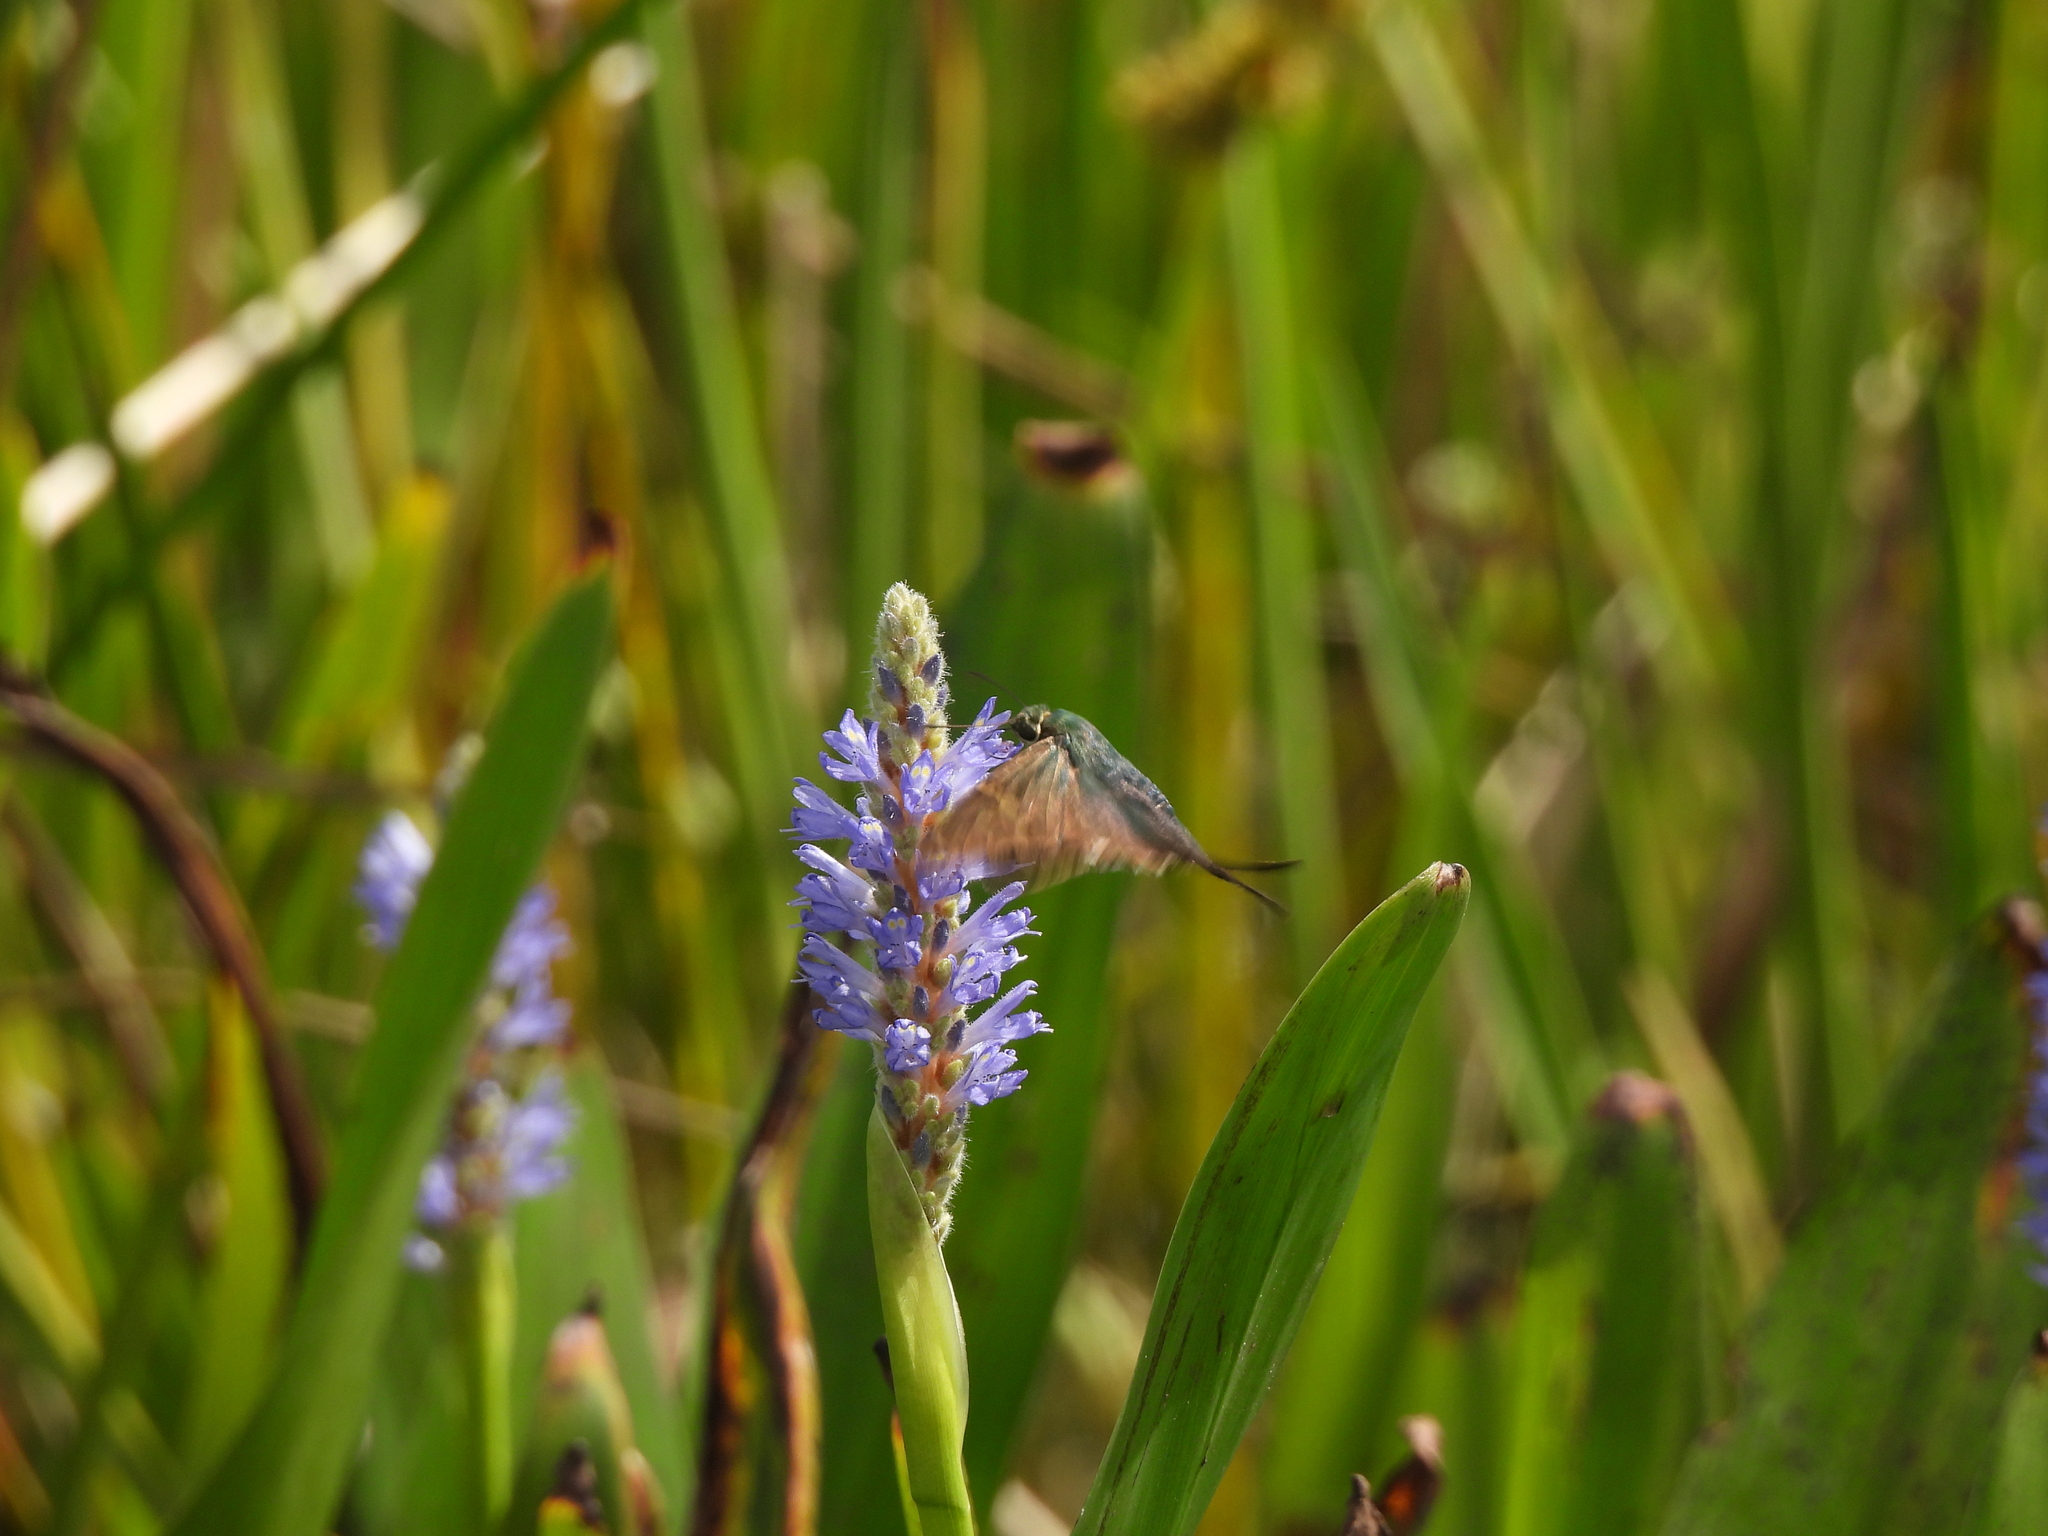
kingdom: Plantae
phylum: Tracheophyta
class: Liliopsida
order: Commelinales
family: Pontederiaceae
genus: Pontederia
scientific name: Pontederia cordata
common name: Pickerelweed
